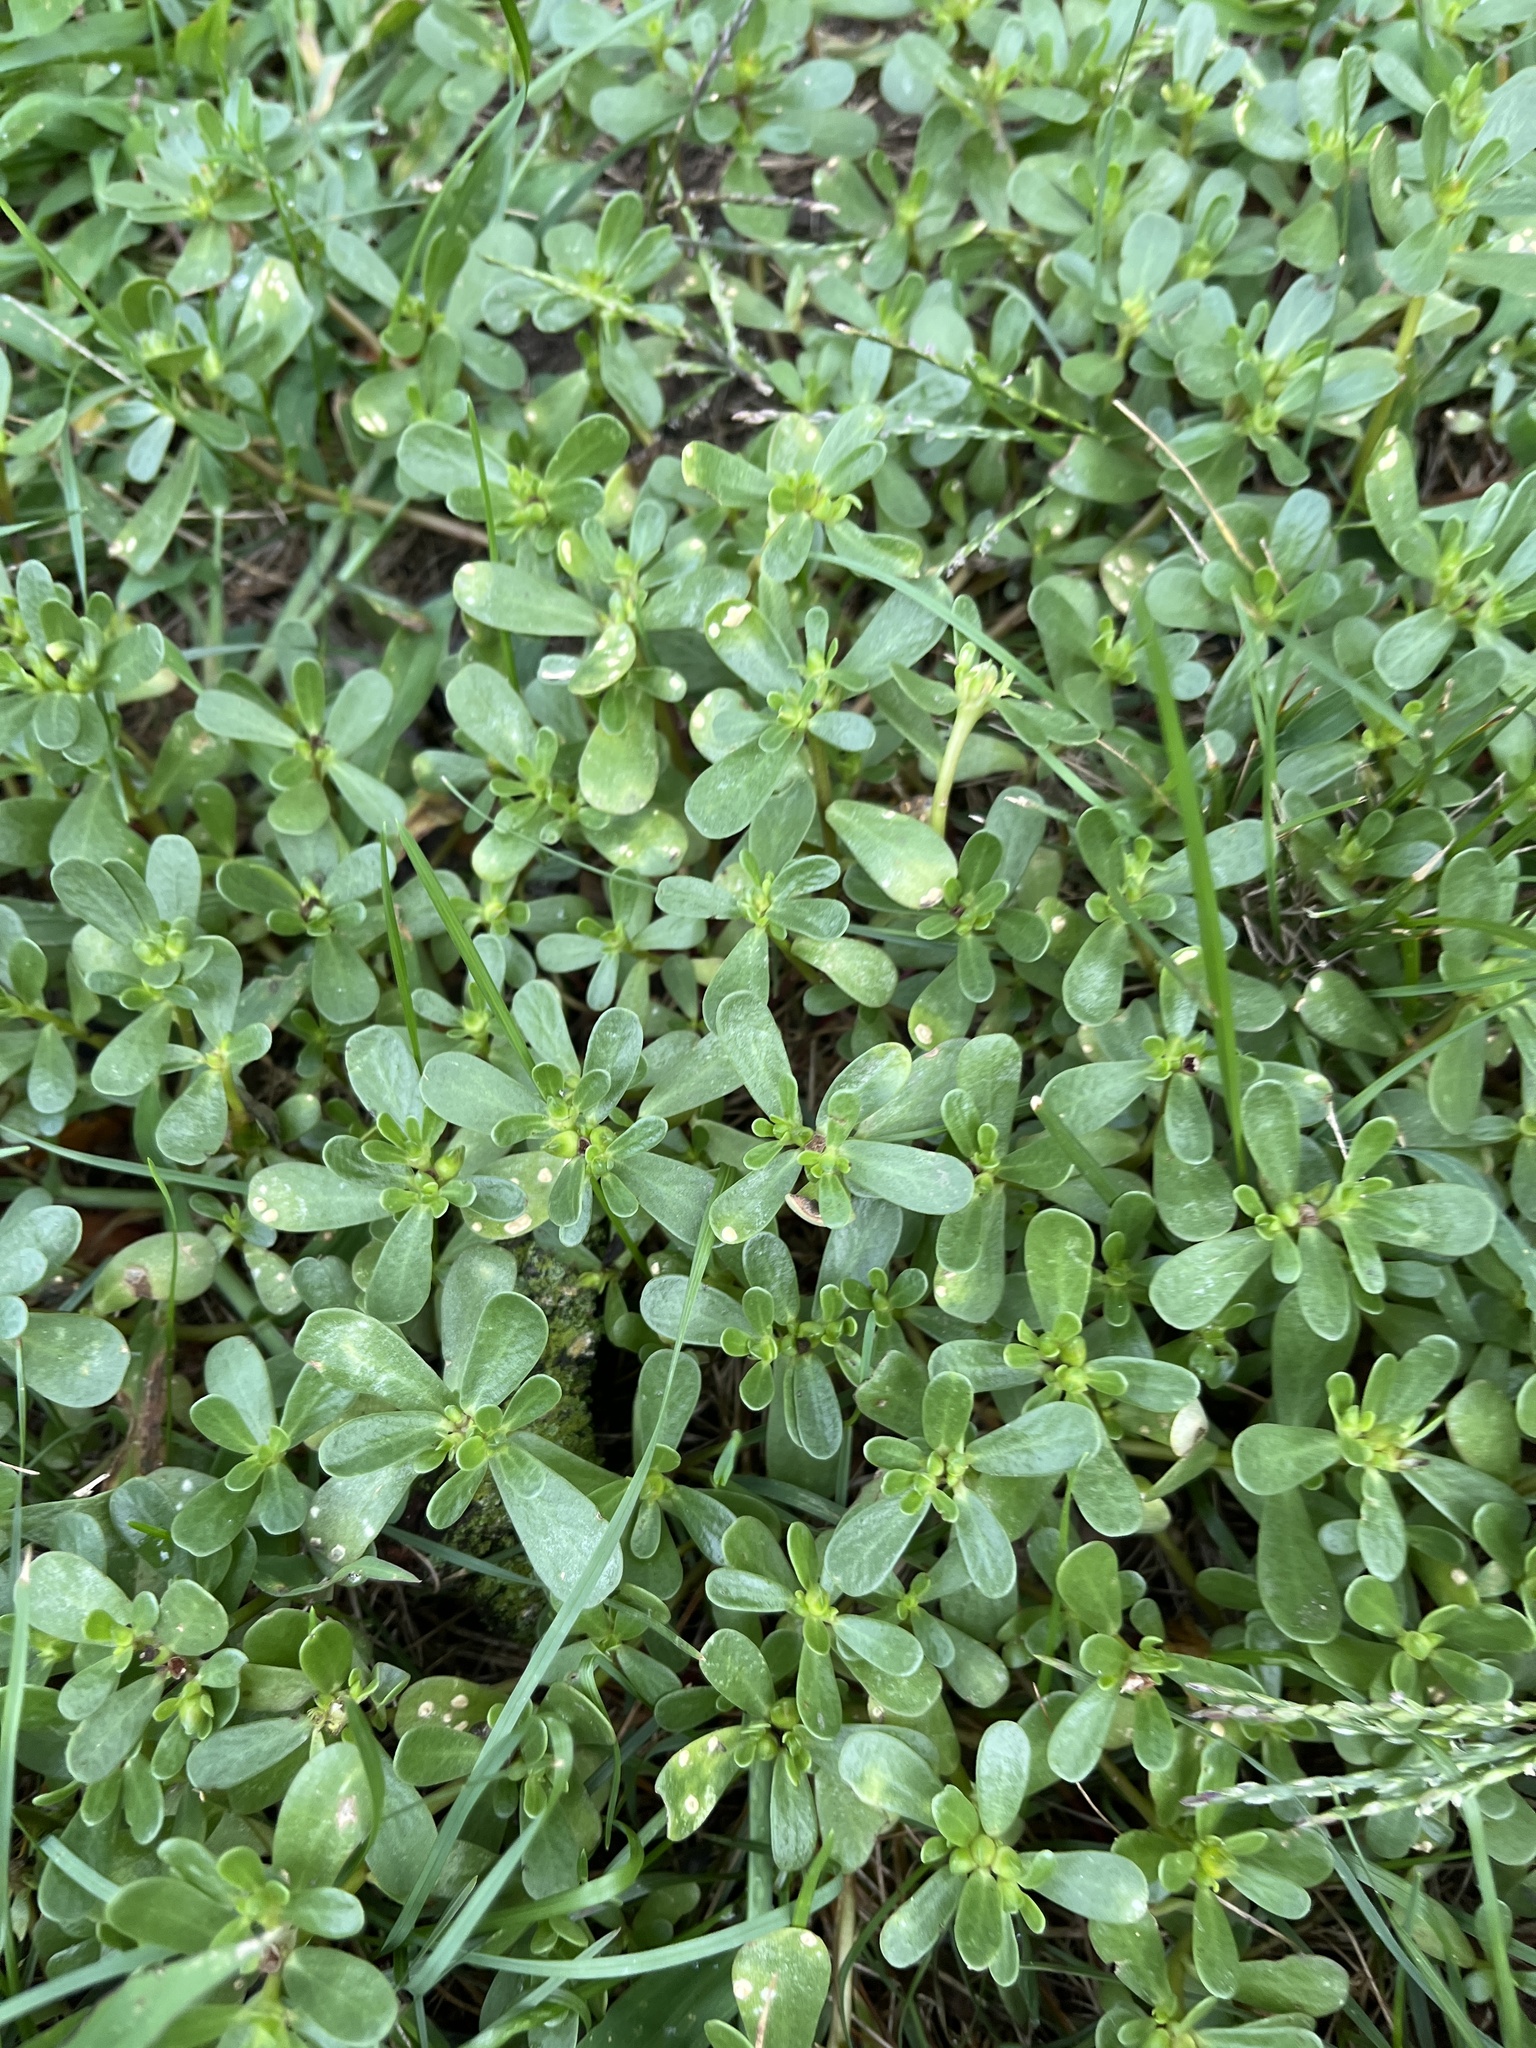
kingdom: Plantae
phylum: Tracheophyta
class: Magnoliopsida
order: Caryophyllales
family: Portulacaceae
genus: Portulaca
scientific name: Portulaca oleracea
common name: Common purslane
